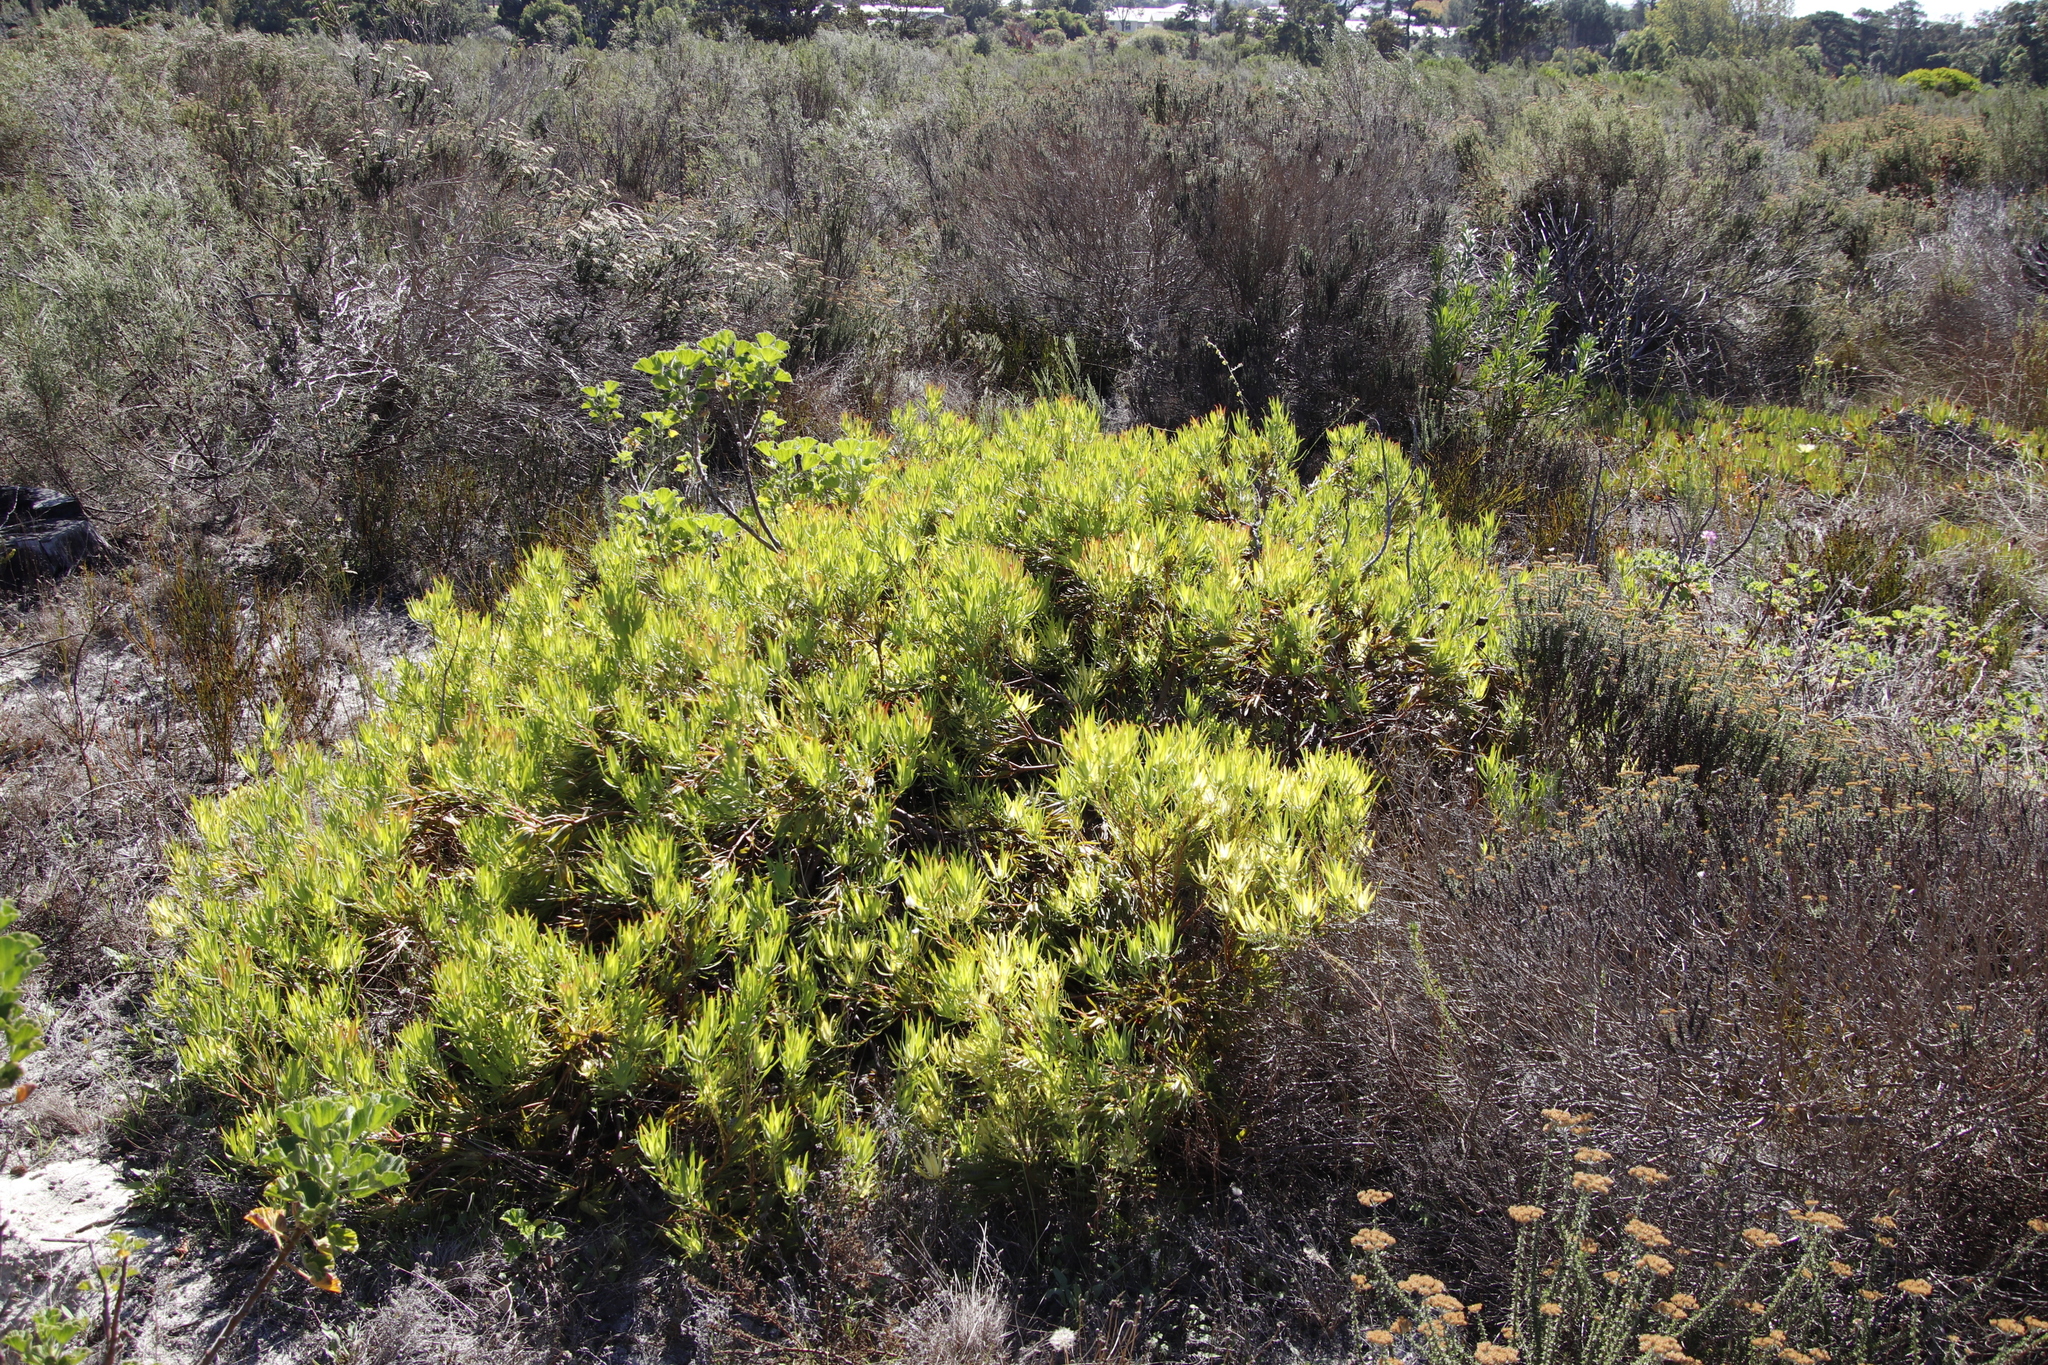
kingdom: Plantae
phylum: Tracheophyta
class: Magnoliopsida
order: Proteales
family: Proteaceae
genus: Leucadendron
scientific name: Leucadendron salignum
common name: Common sunshine conebush
